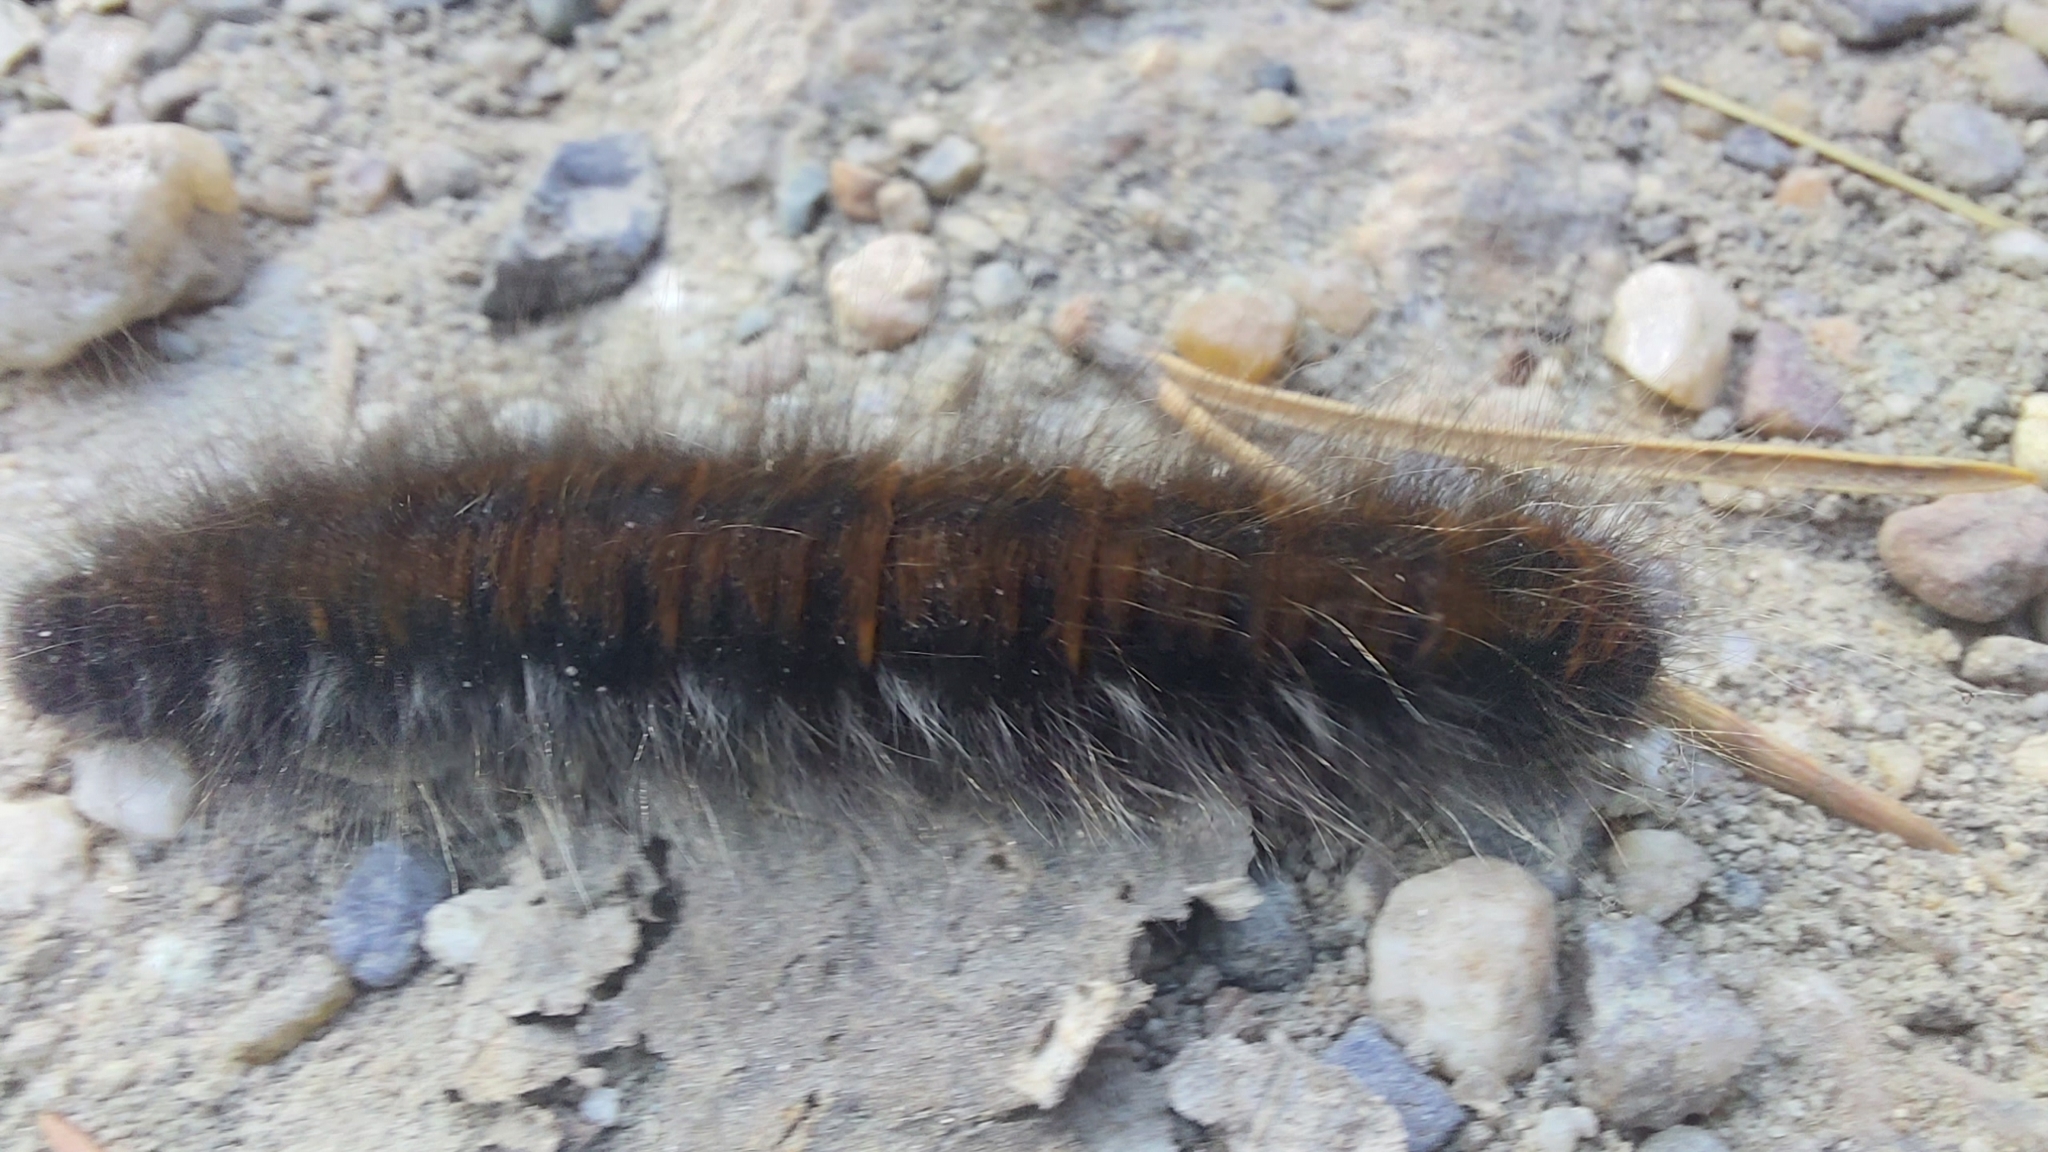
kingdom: Animalia
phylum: Arthropoda
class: Insecta
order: Lepidoptera
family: Lasiocampidae
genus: Macrothylacia
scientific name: Macrothylacia rubi
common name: Fox moth
